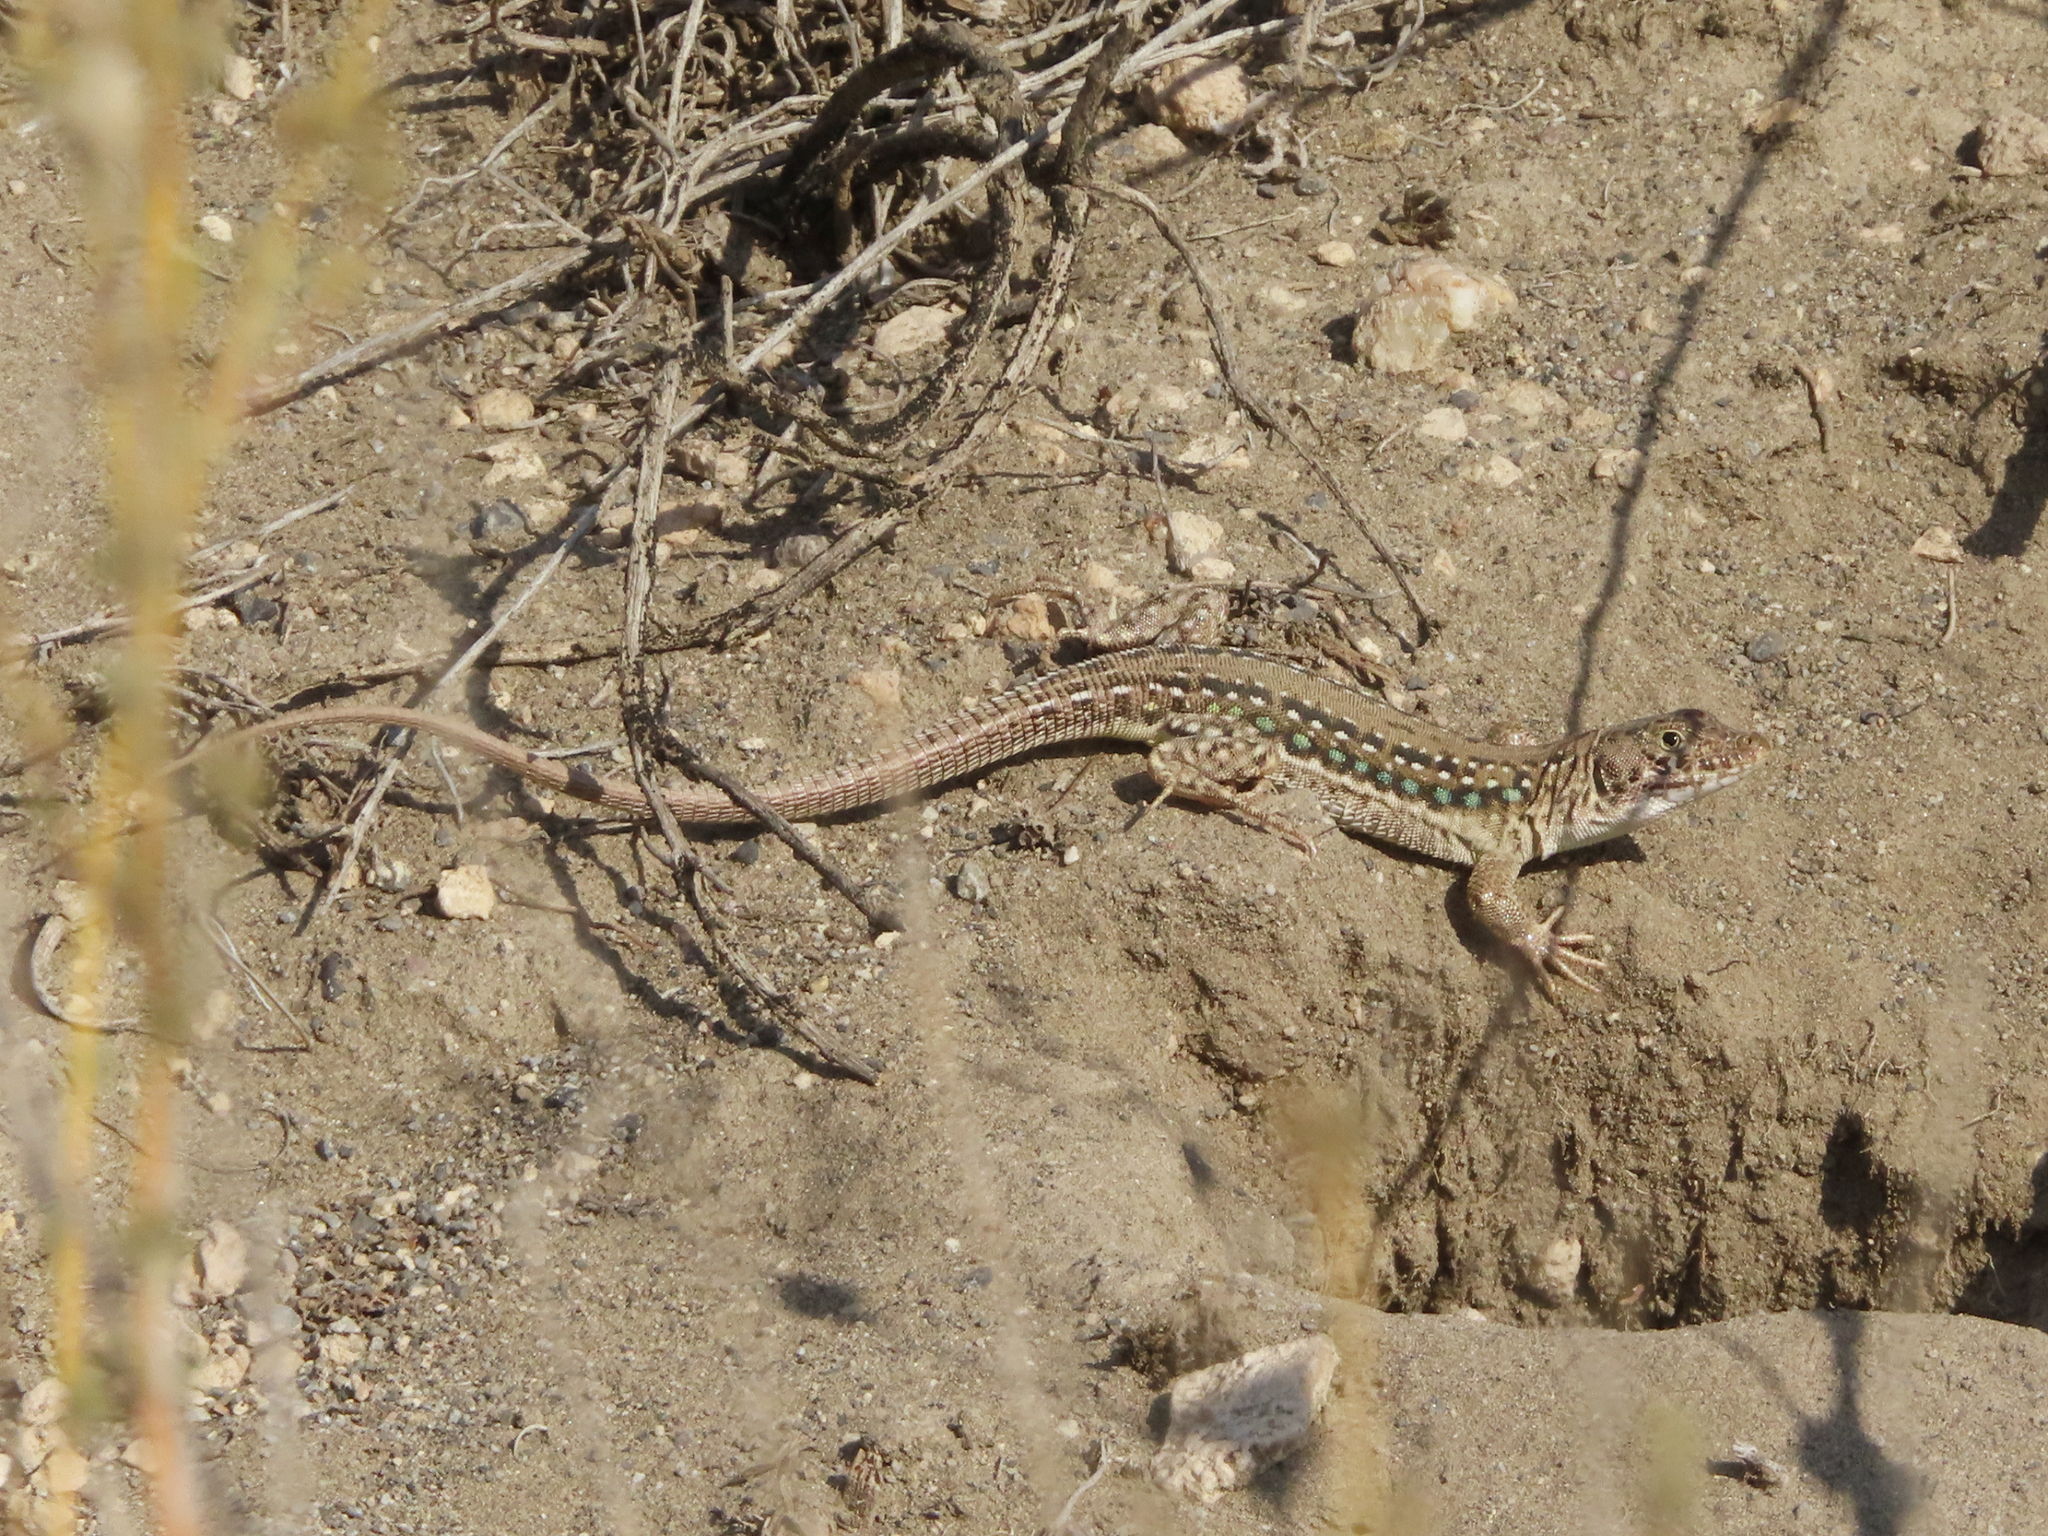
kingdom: Animalia
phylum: Chordata
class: Squamata
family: Lacertidae
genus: Eremias
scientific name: Eremias strauchi
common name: Strauch's racerunner
